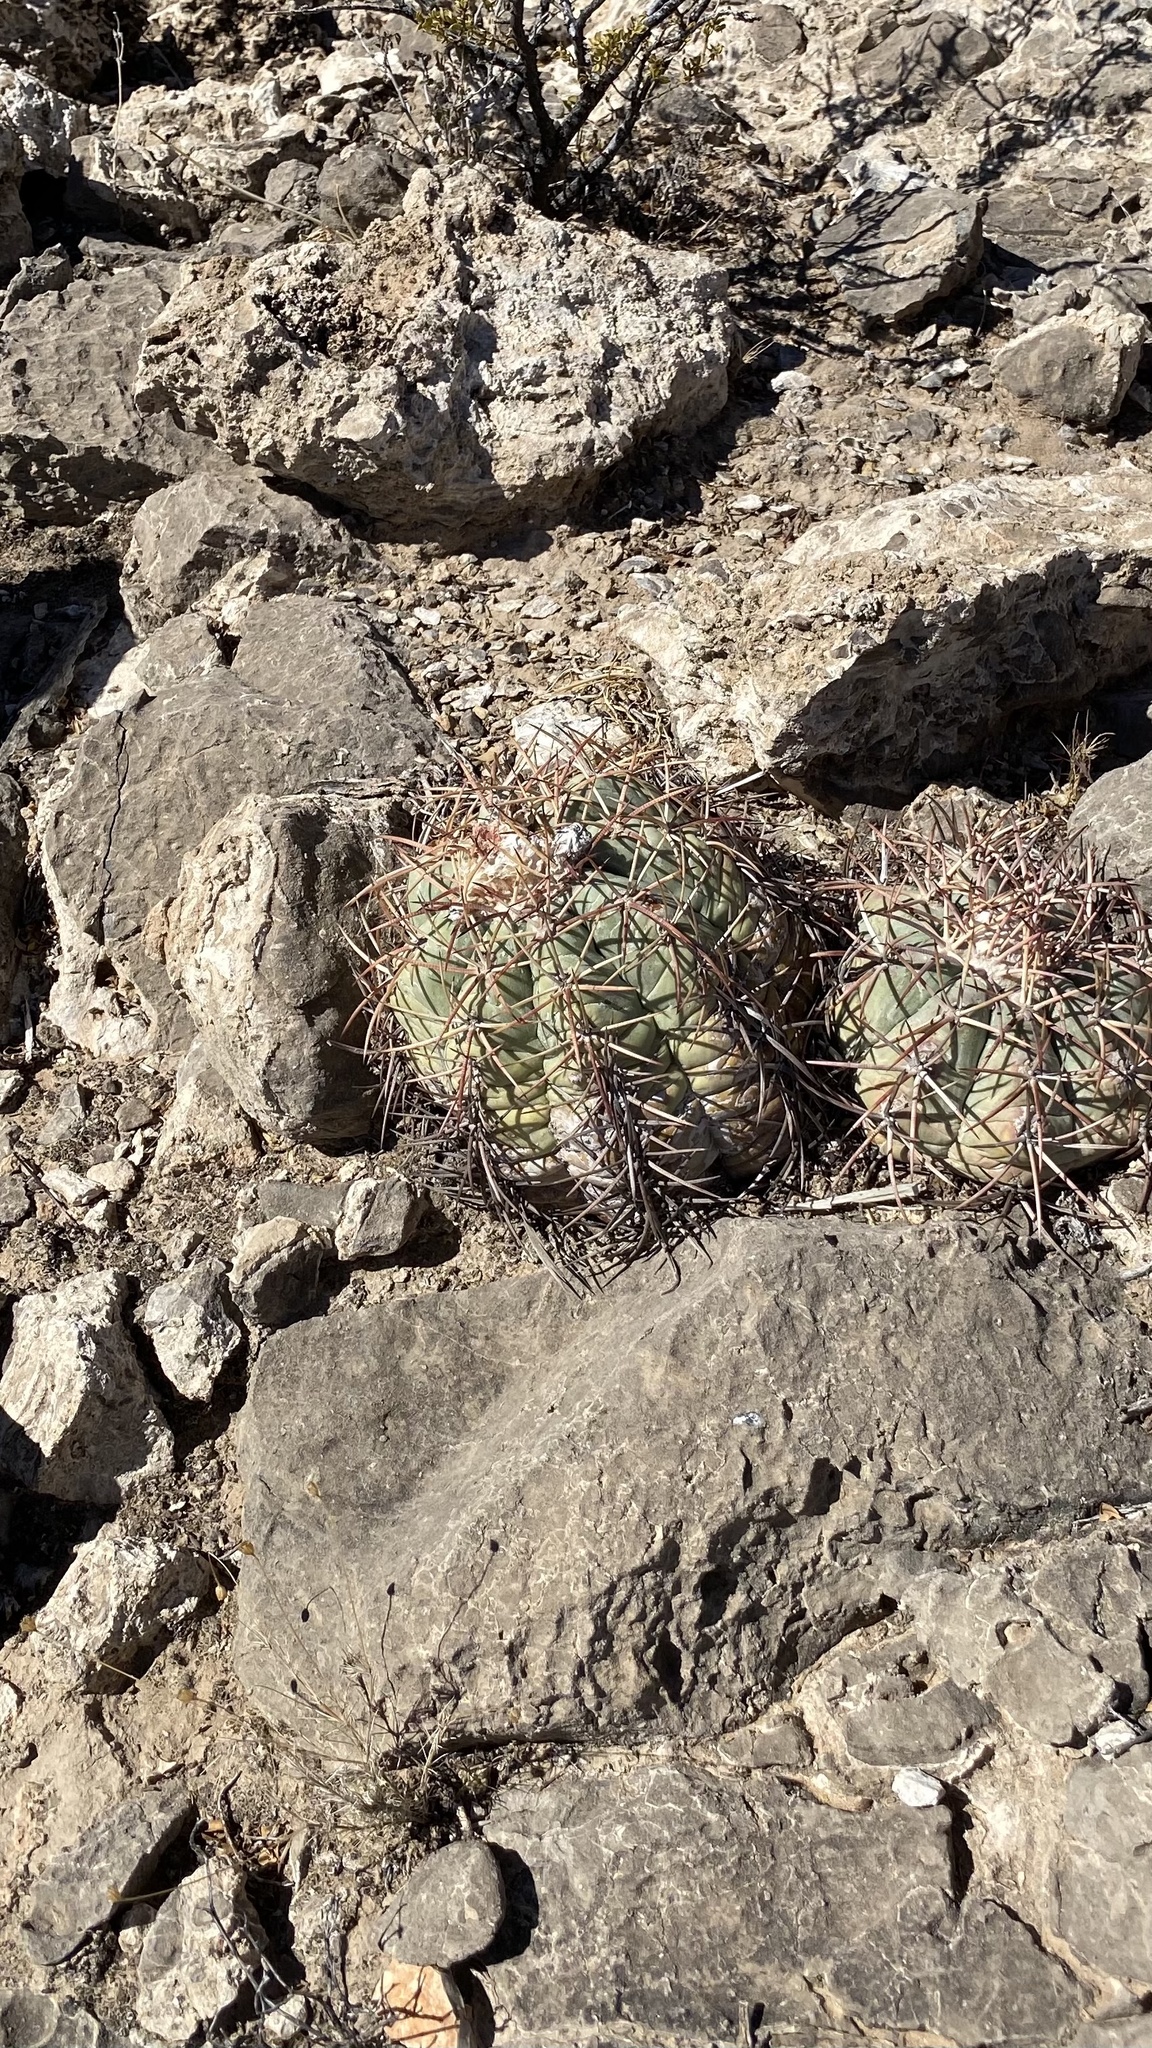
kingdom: Plantae
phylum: Tracheophyta
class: Magnoliopsida
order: Caryophyllales
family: Cactaceae
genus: Echinocactus
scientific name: Echinocactus horizonthalonius
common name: Devilshead
